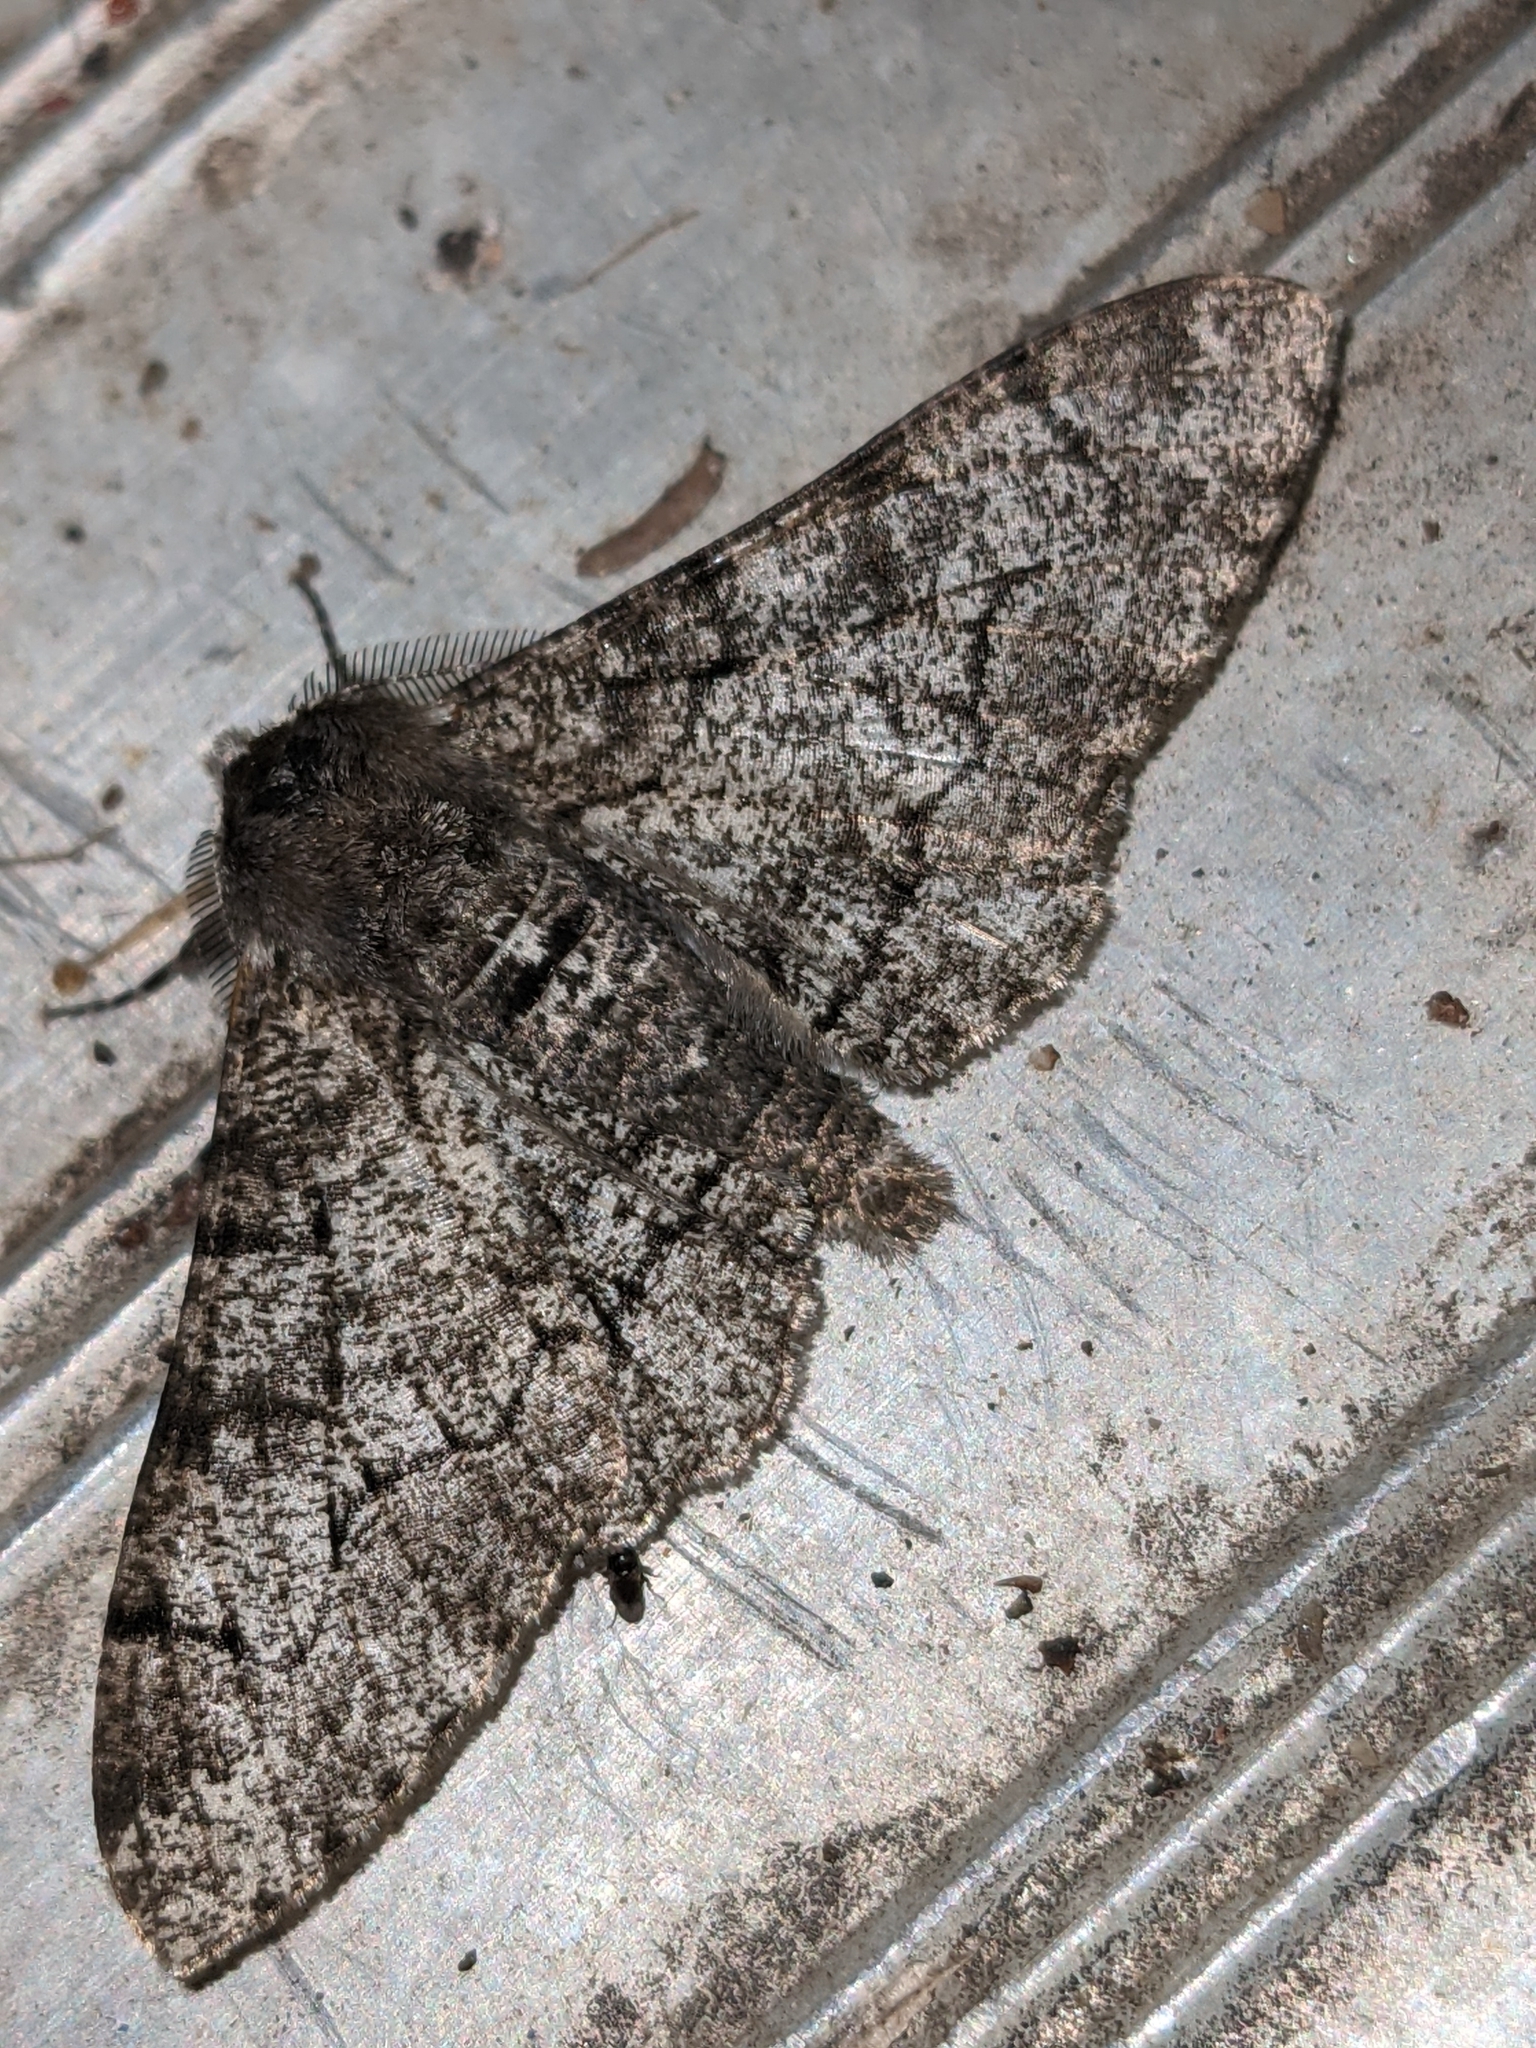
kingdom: Animalia
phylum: Arthropoda
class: Insecta
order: Lepidoptera
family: Geometridae
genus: Biston
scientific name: Biston betularia
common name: Peppered moth
